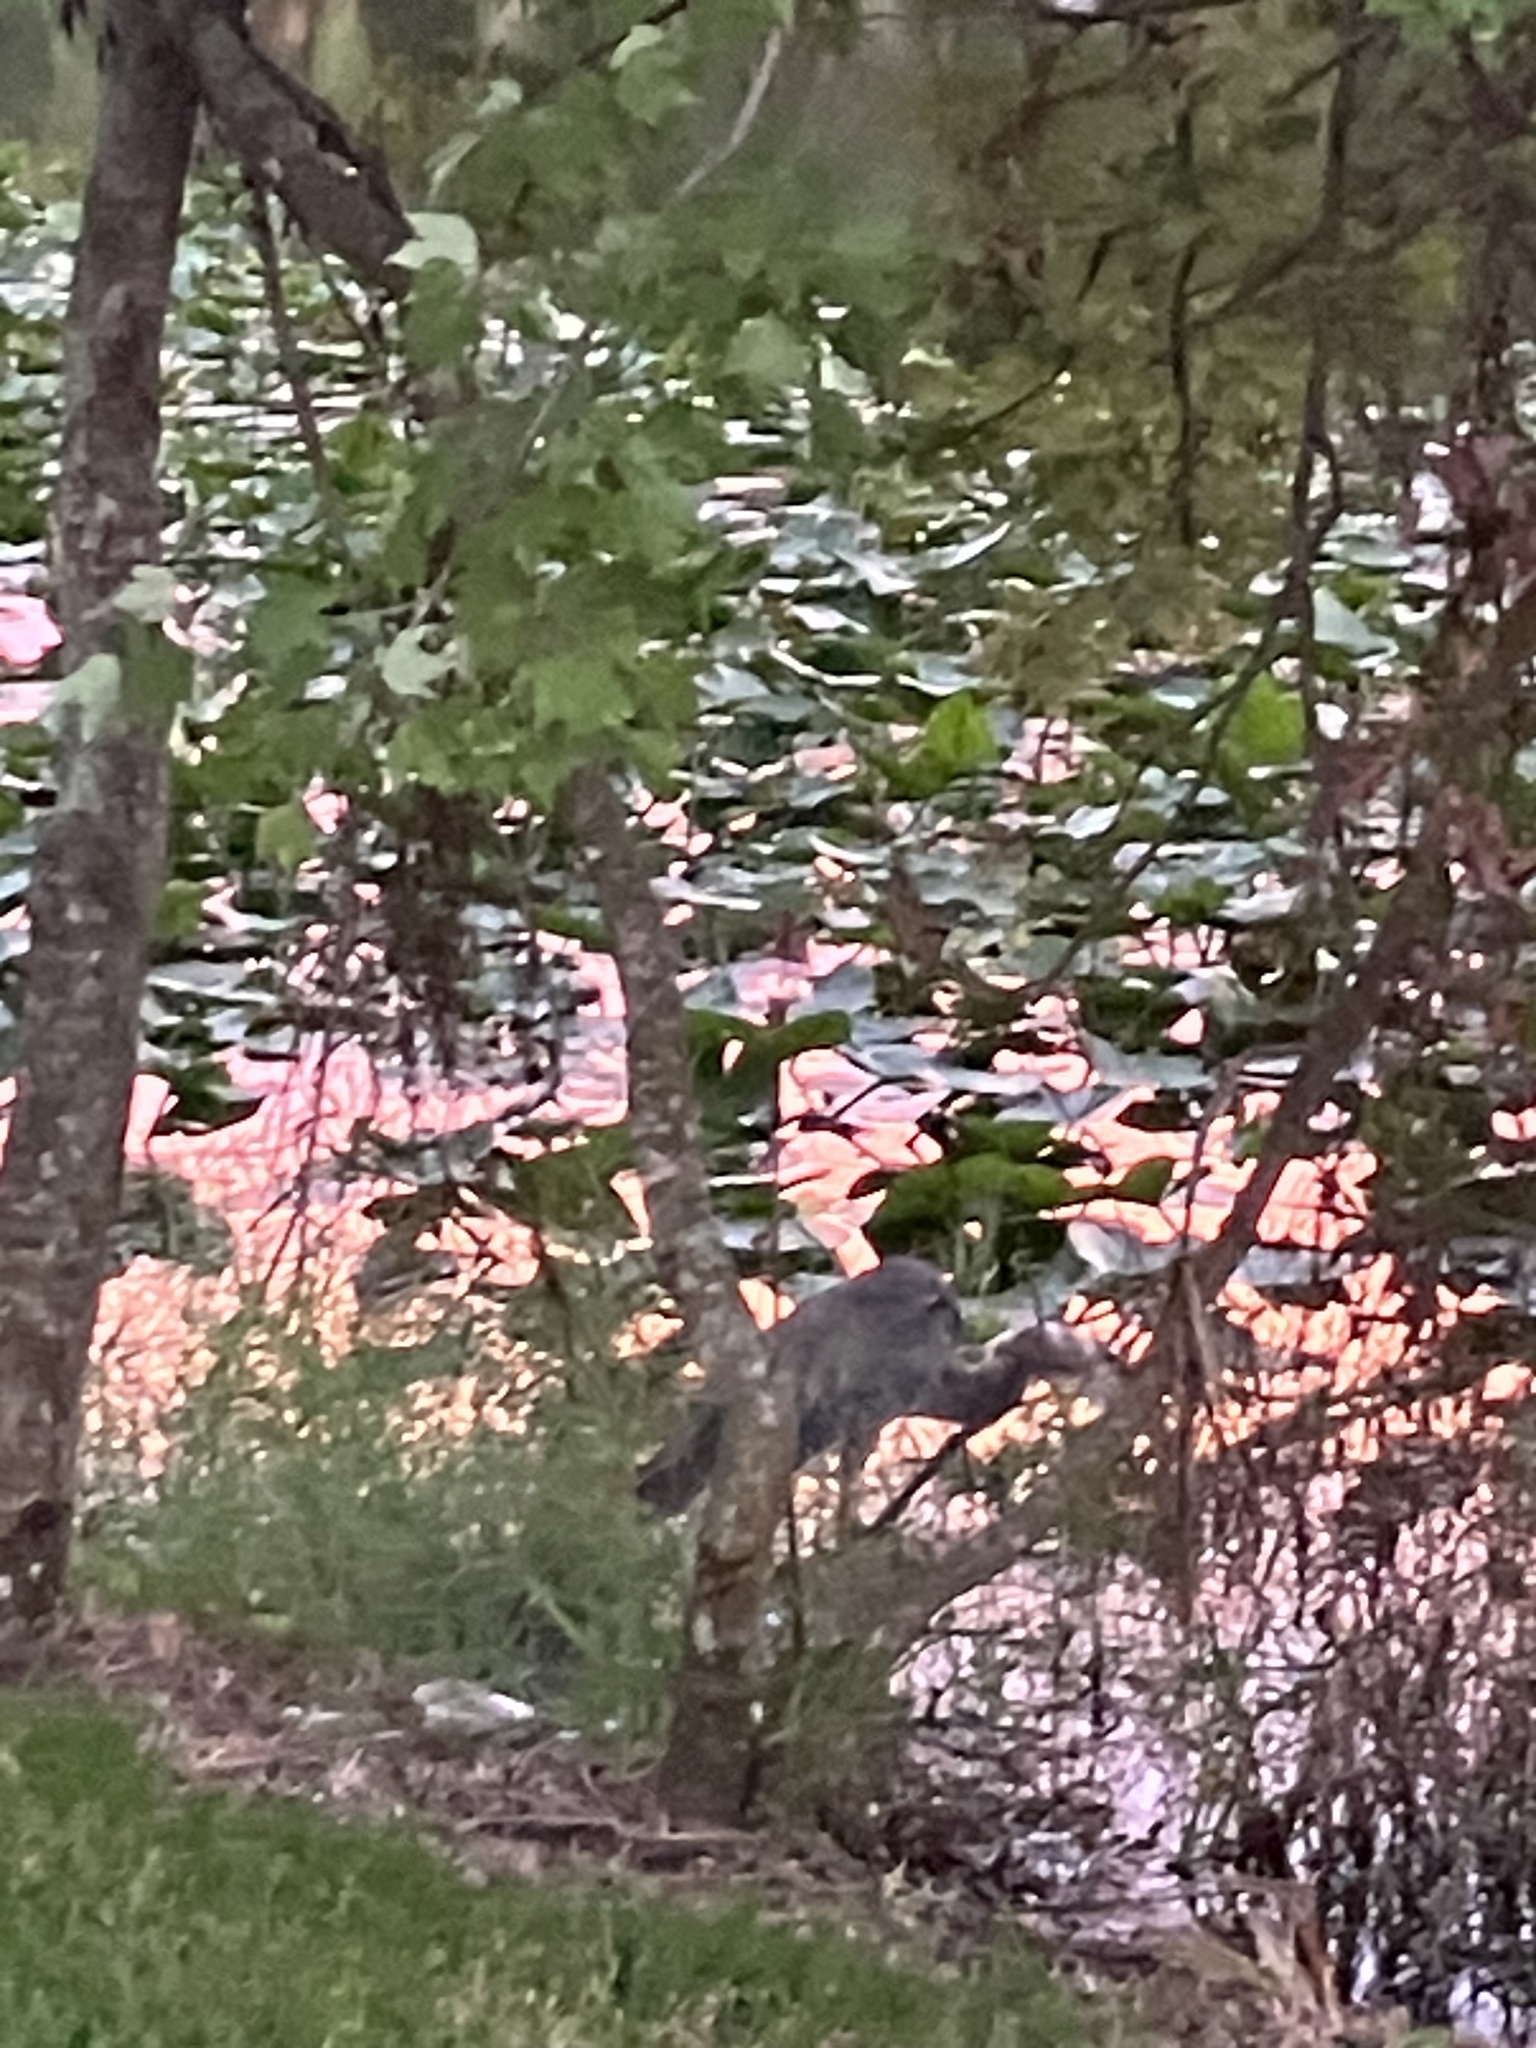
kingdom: Animalia
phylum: Chordata
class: Aves
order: Pelecaniformes
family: Ardeidae
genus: Ardea
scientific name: Ardea herodias
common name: Great blue heron
